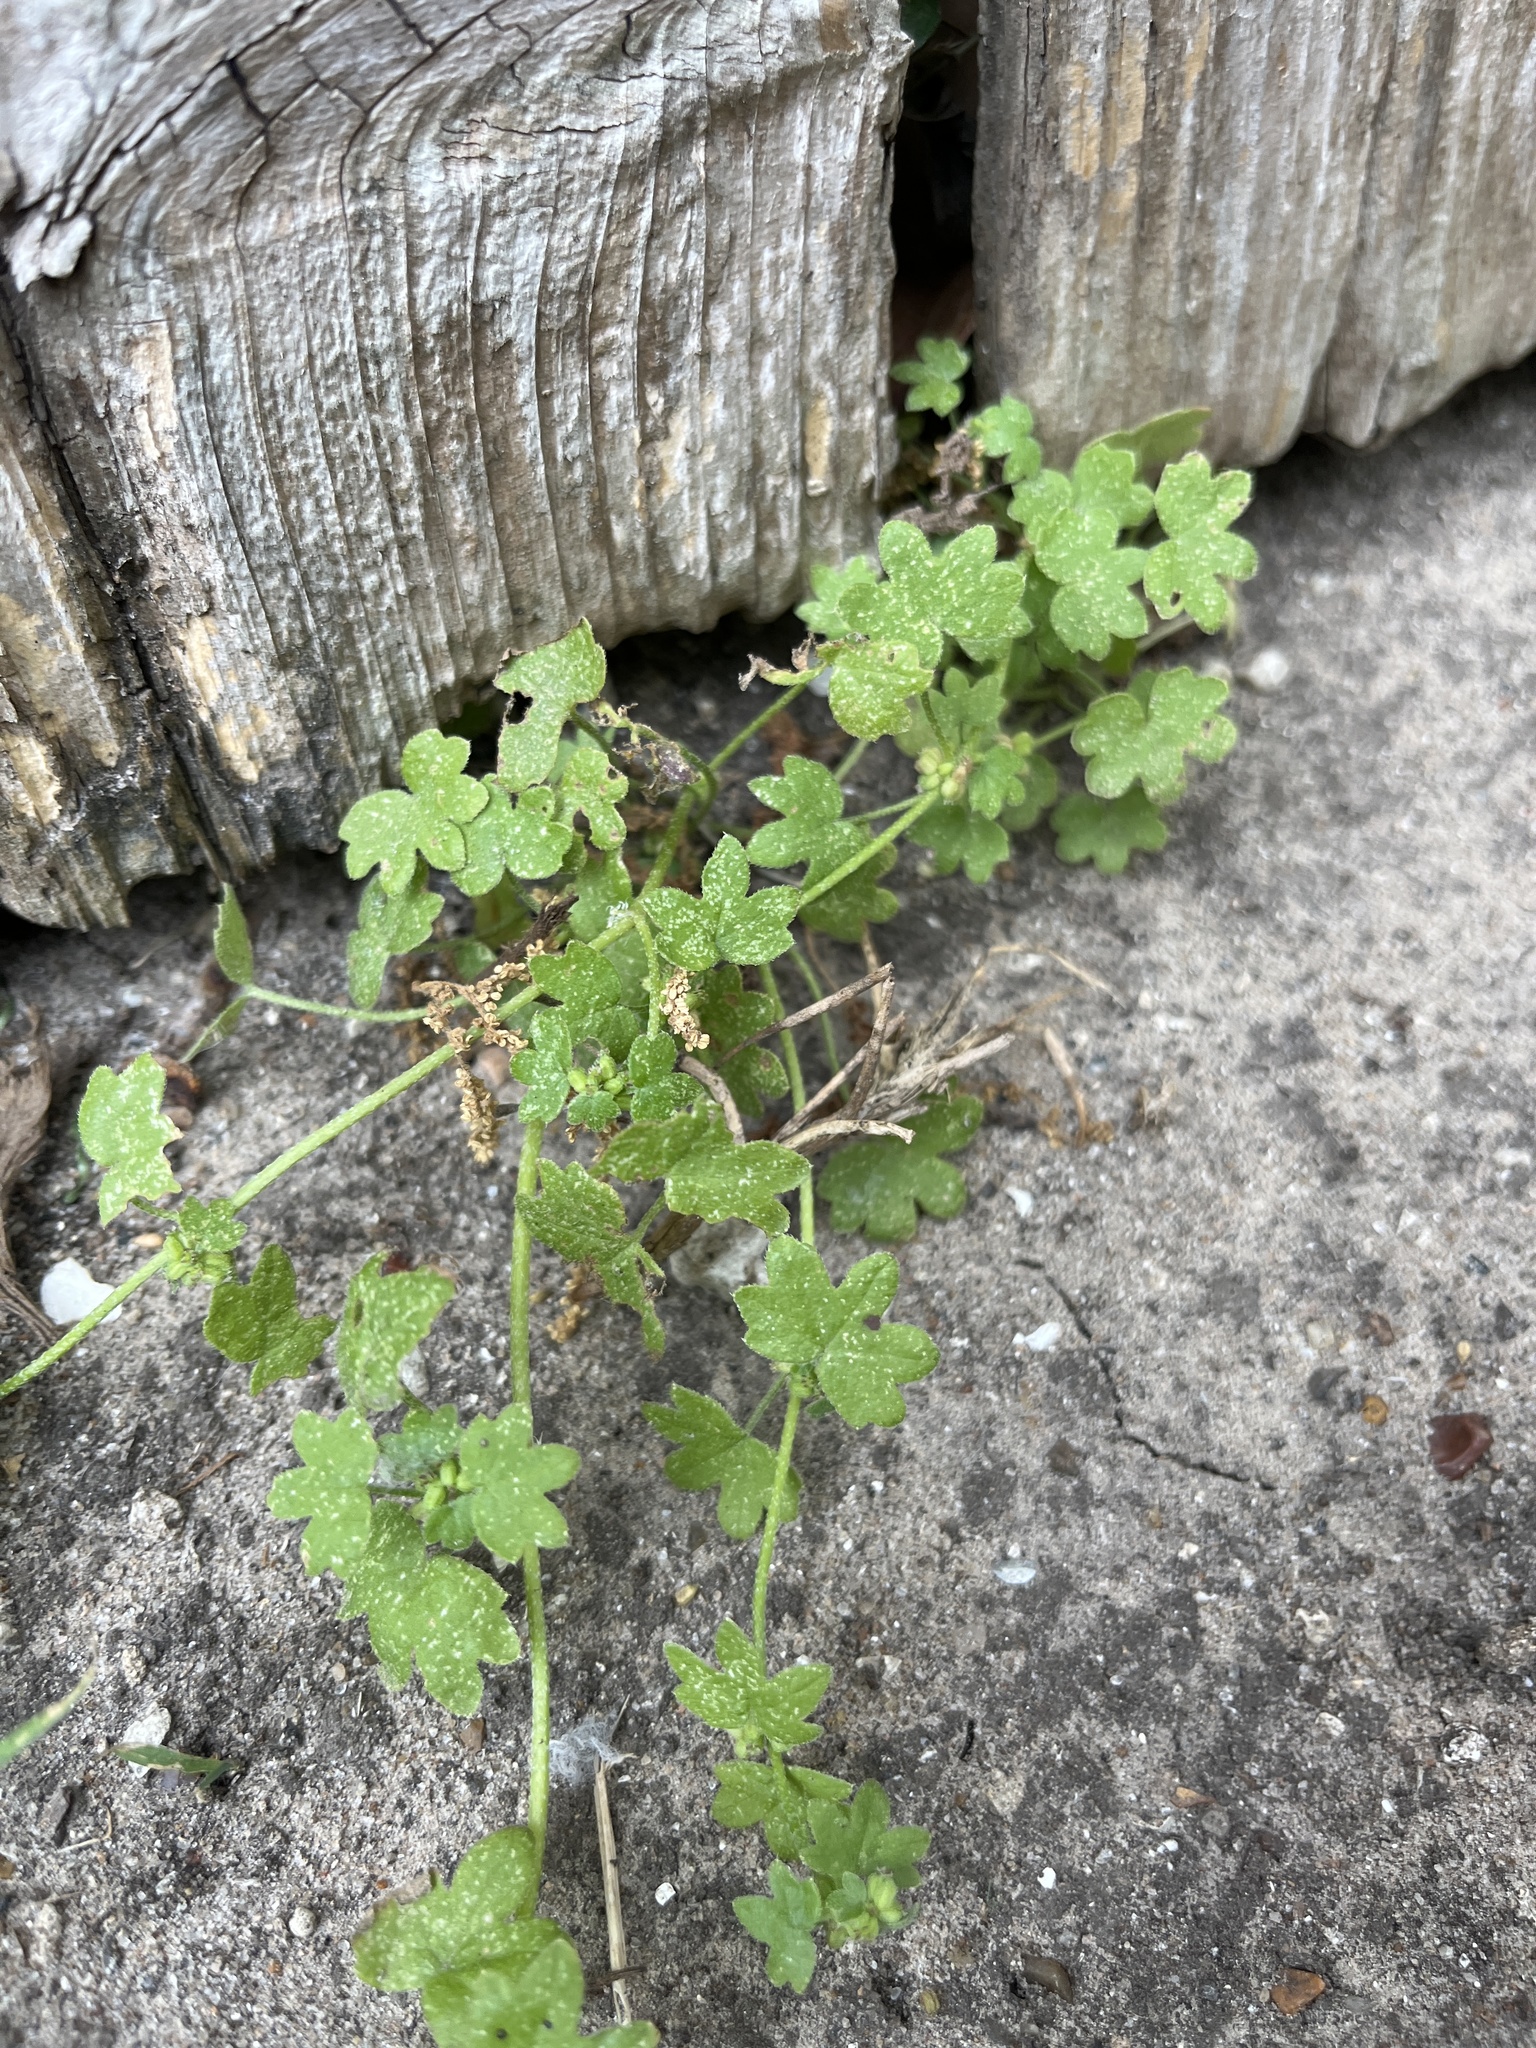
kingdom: Plantae
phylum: Tracheophyta
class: Magnoliopsida
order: Apiales
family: Apiaceae
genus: Bowlesia
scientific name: Bowlesia incana
